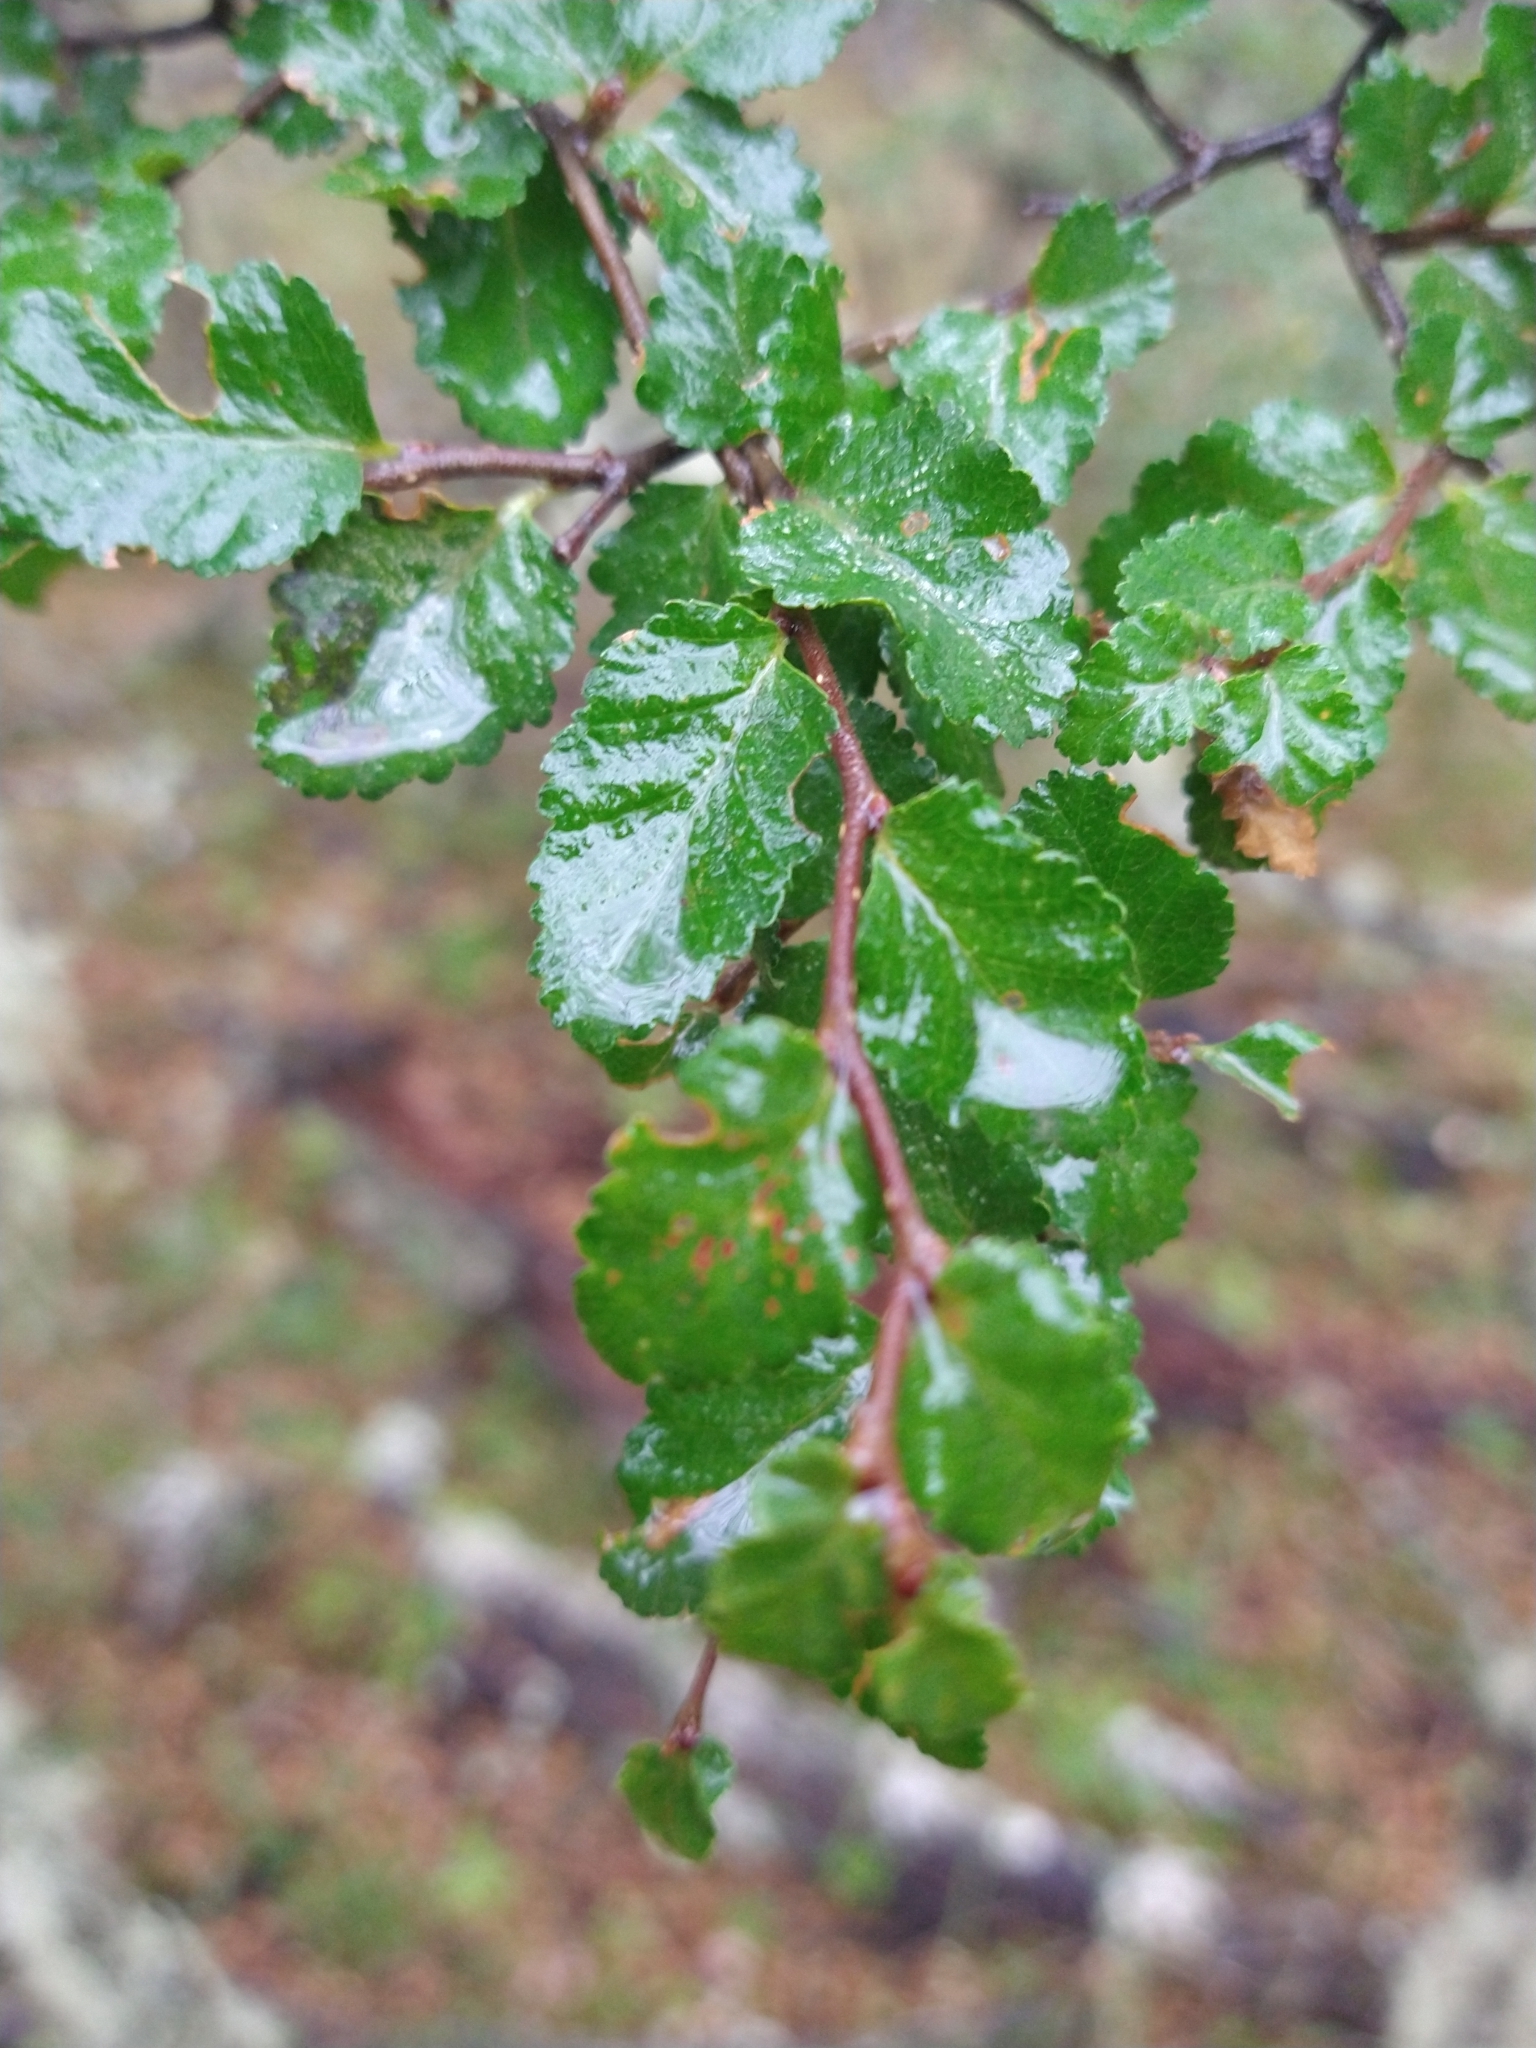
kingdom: Plantae
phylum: Tracheophyta
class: Magnoliopsida
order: Fagales
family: Nothofagaceae
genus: Nothofagus
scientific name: Nothofagus antarctica
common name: Antarctic beech
